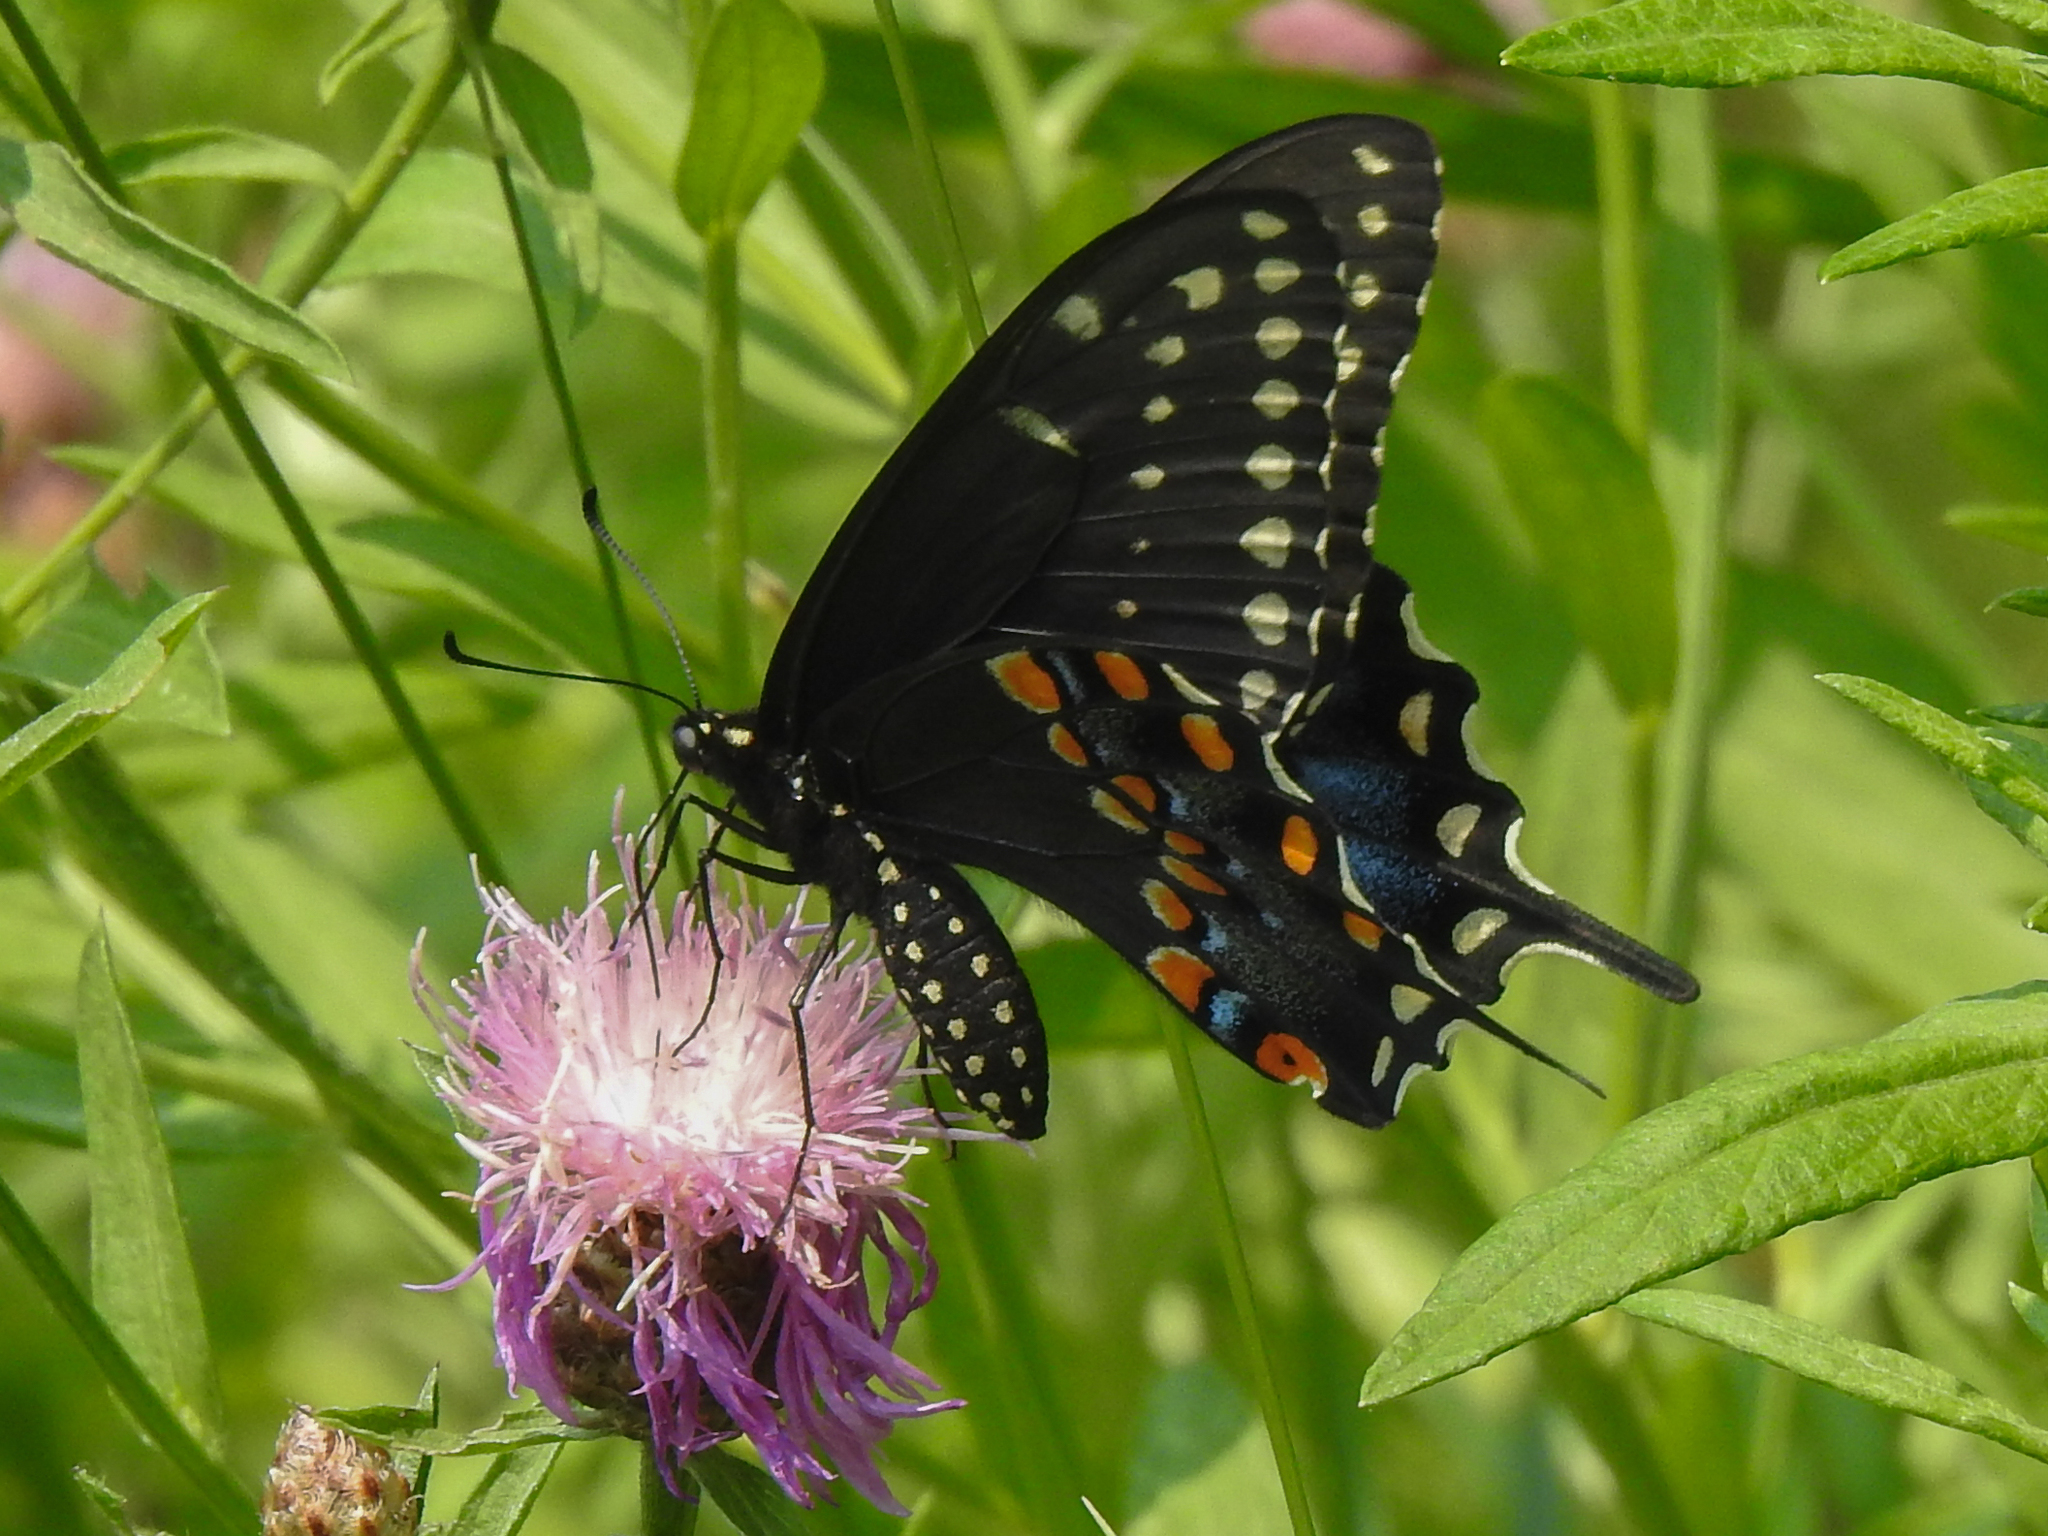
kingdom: Animalia
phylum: Arthropoda
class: Insecta
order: Lepidoptera
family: Papilionidae
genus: Papilio
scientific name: Papilio polyxenes
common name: Black swallowtail
